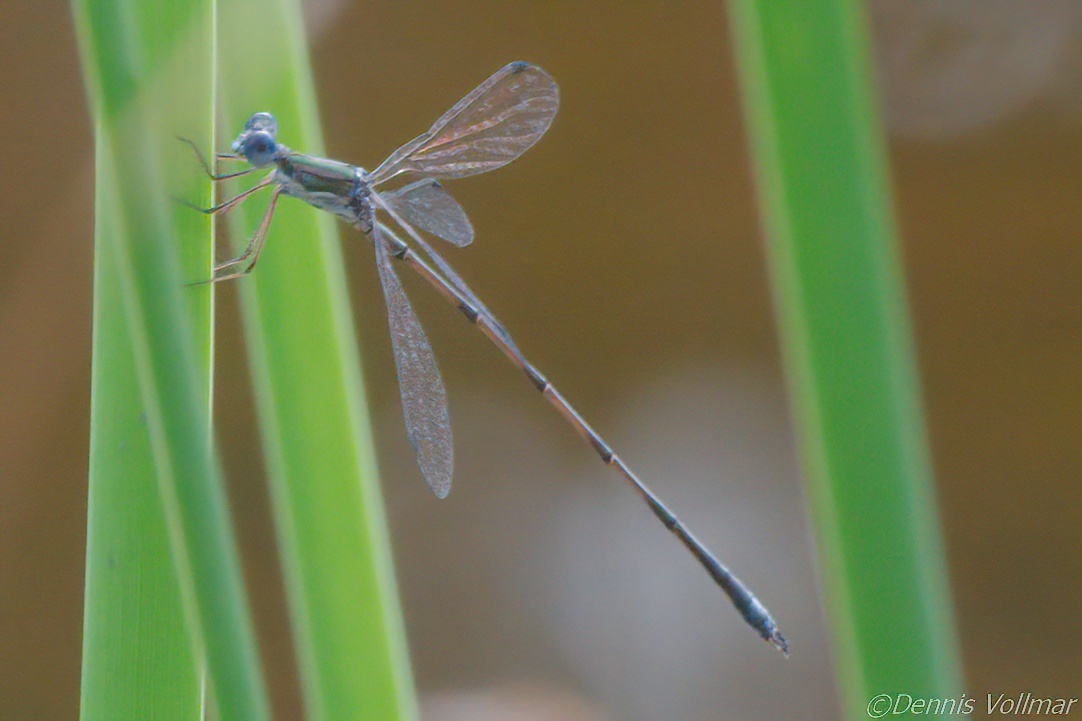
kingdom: Animalia
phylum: Arthropoda
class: Insecta
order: Odonata
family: Lestidae
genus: Lestes
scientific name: Lestes spumarius
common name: Antillean spreadwing
